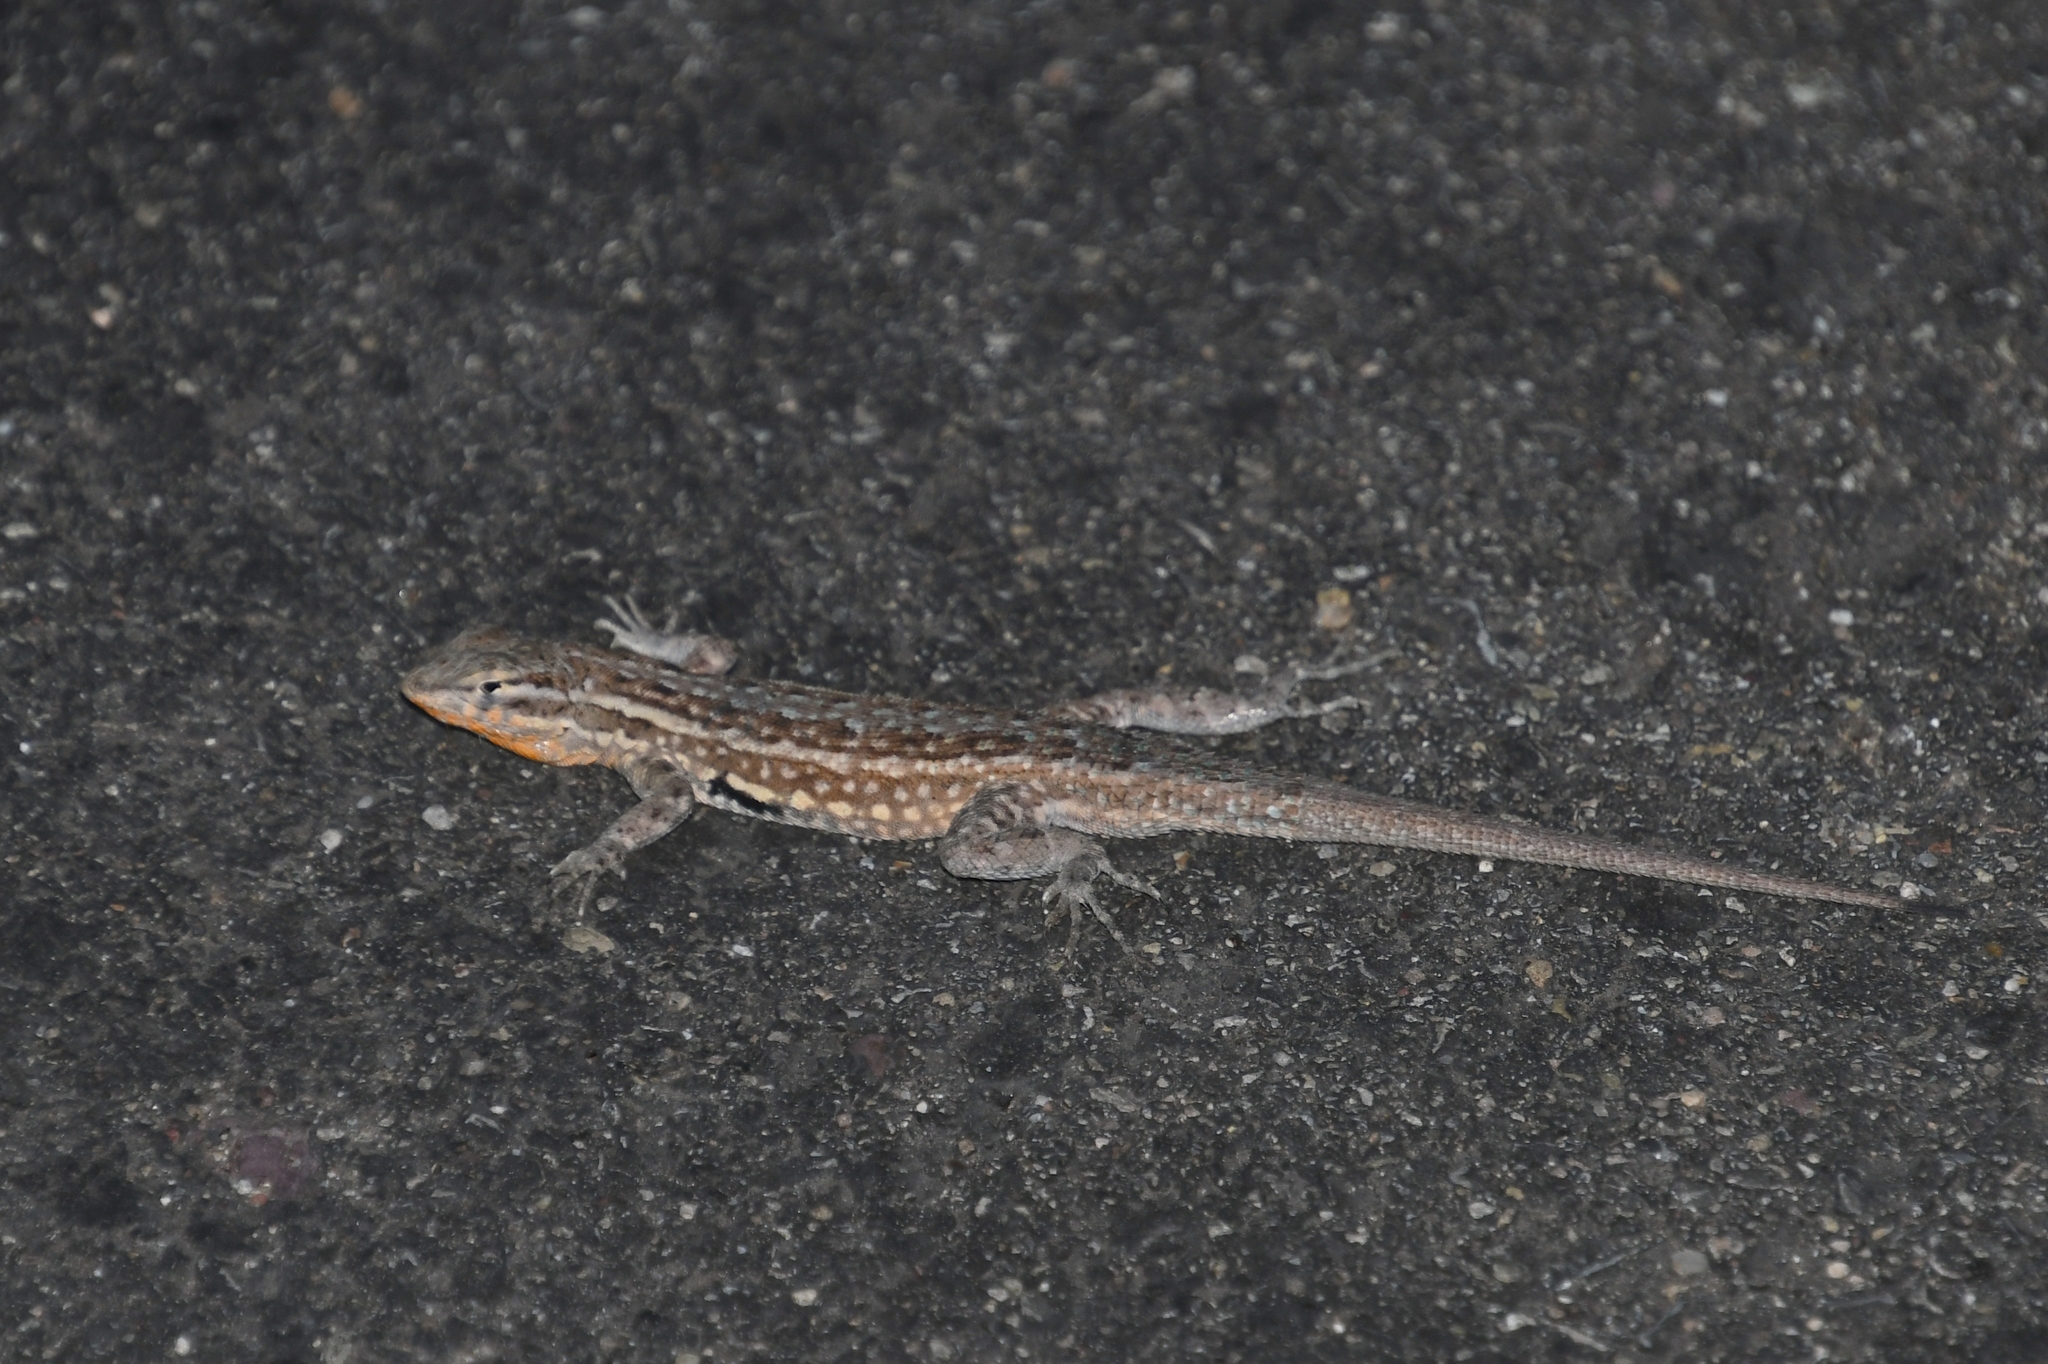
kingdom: Animalia
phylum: Chordata
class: Squamata
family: Phrynosomatidae
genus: Uta
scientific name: Uta stansburiana
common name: Side-blotched lizard
